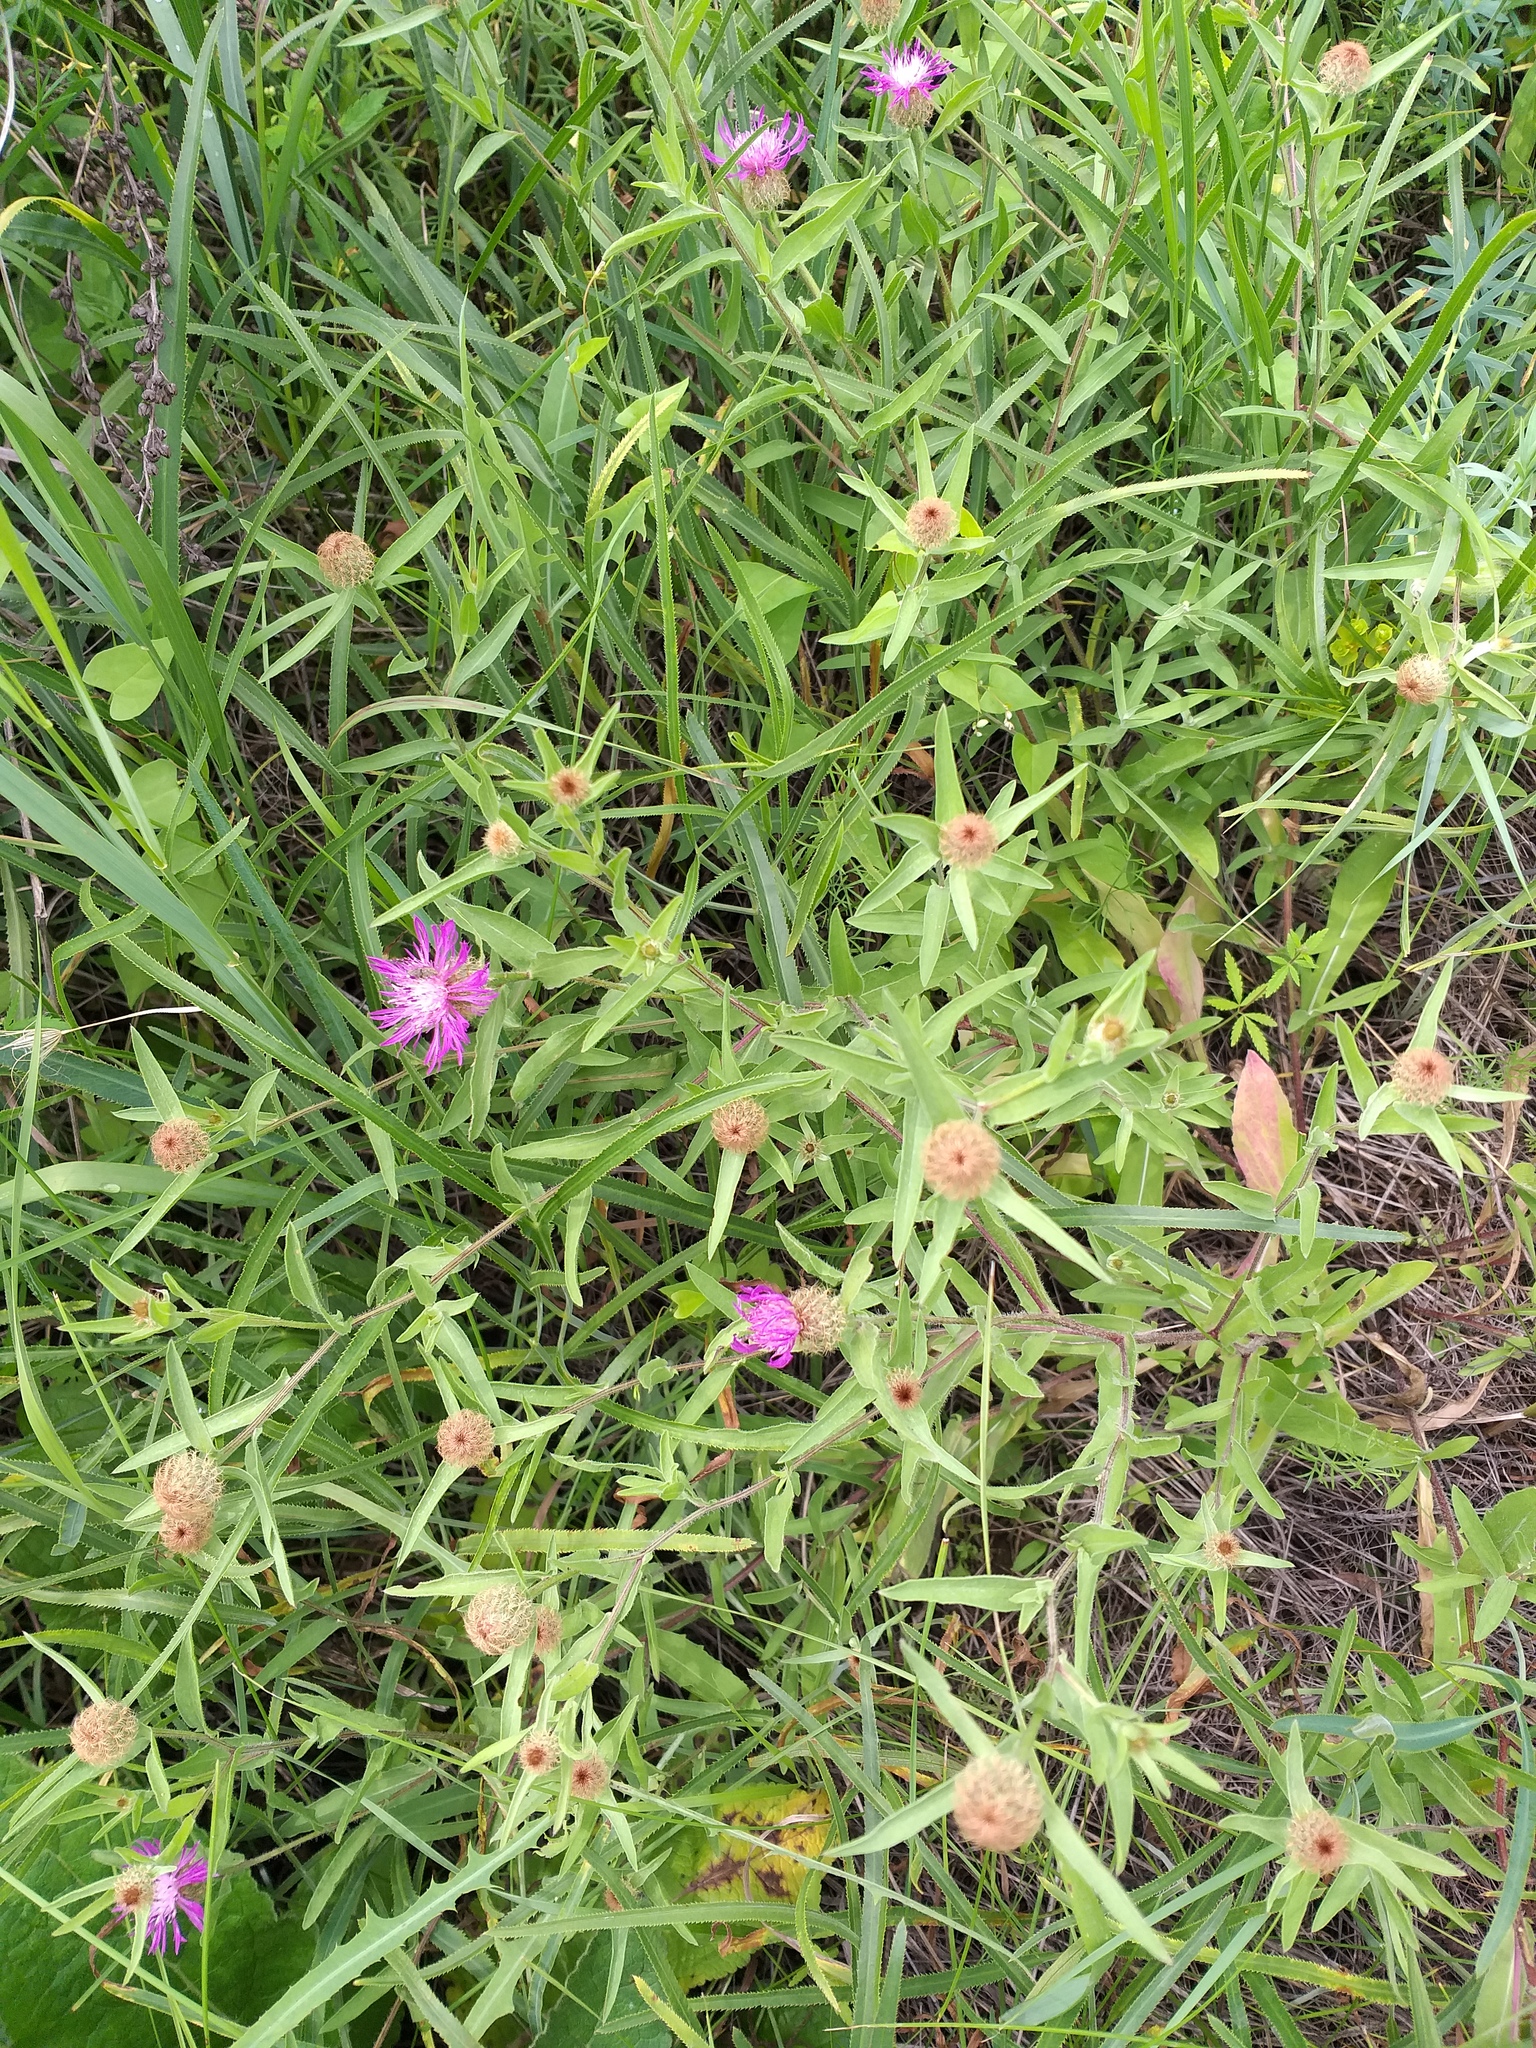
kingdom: Plantae
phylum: Tracheophyta
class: Magnoliopsida
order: Asterales
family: Asteraceae
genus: Centaurea
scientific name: Centaurea trichocephala
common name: Feather-head knapweed
